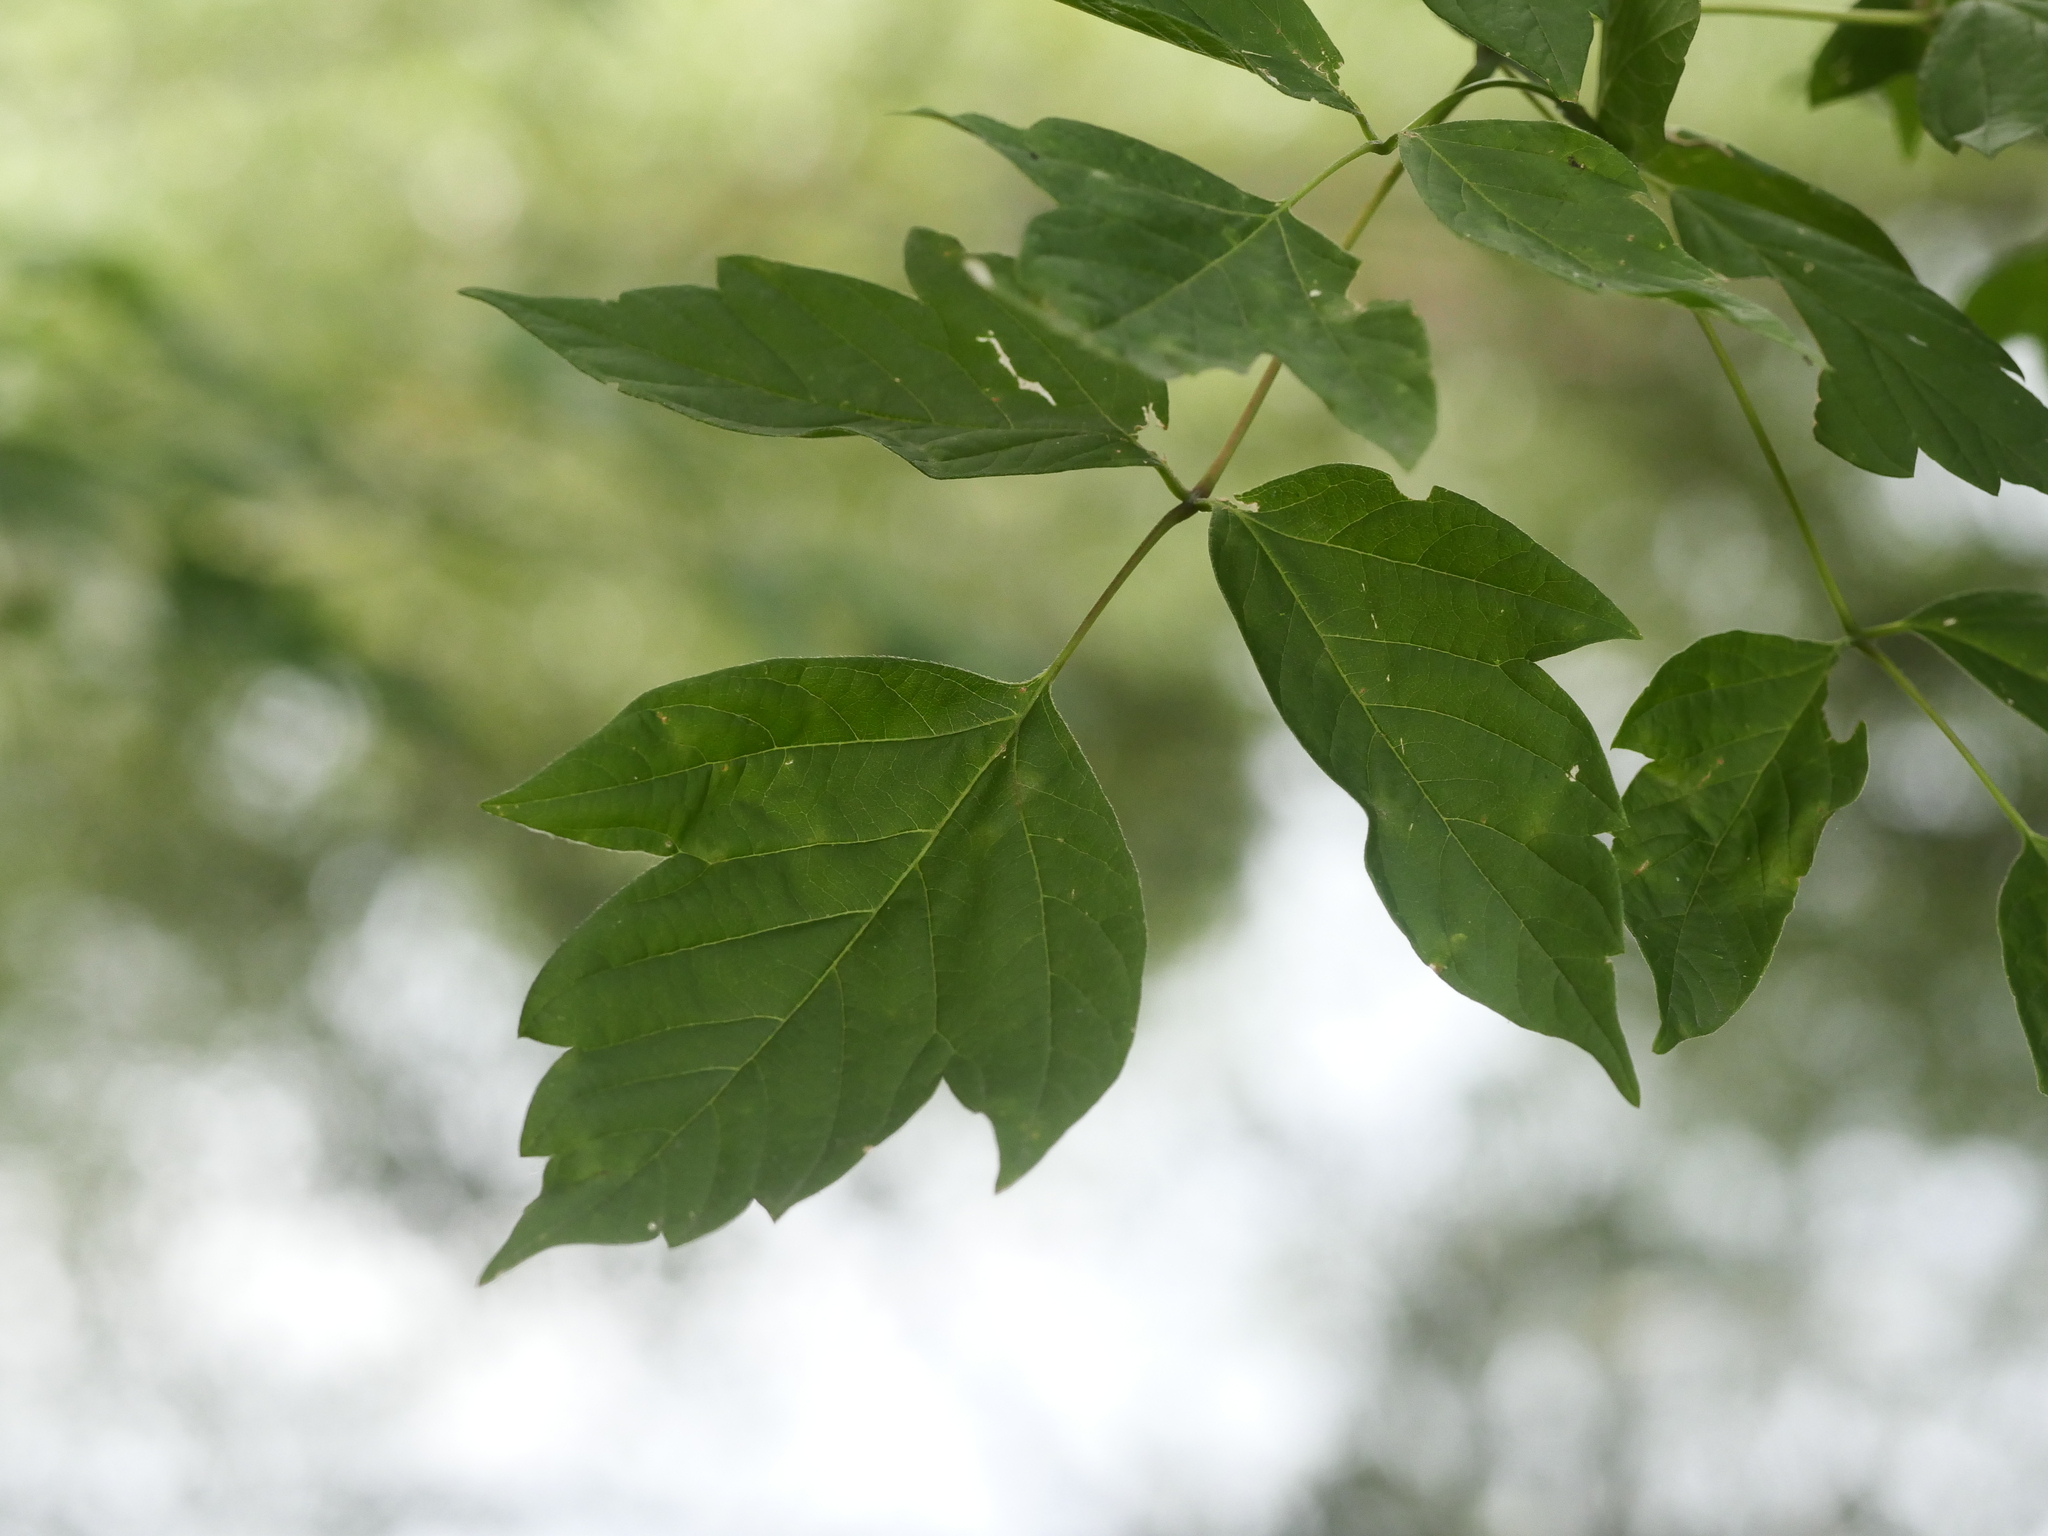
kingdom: Plantae
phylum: Tracheophyta
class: Magnoliopsida
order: Sapindales
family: Sapindaceae
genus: Acer
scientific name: Acer negundo
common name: Ashleaf maple
